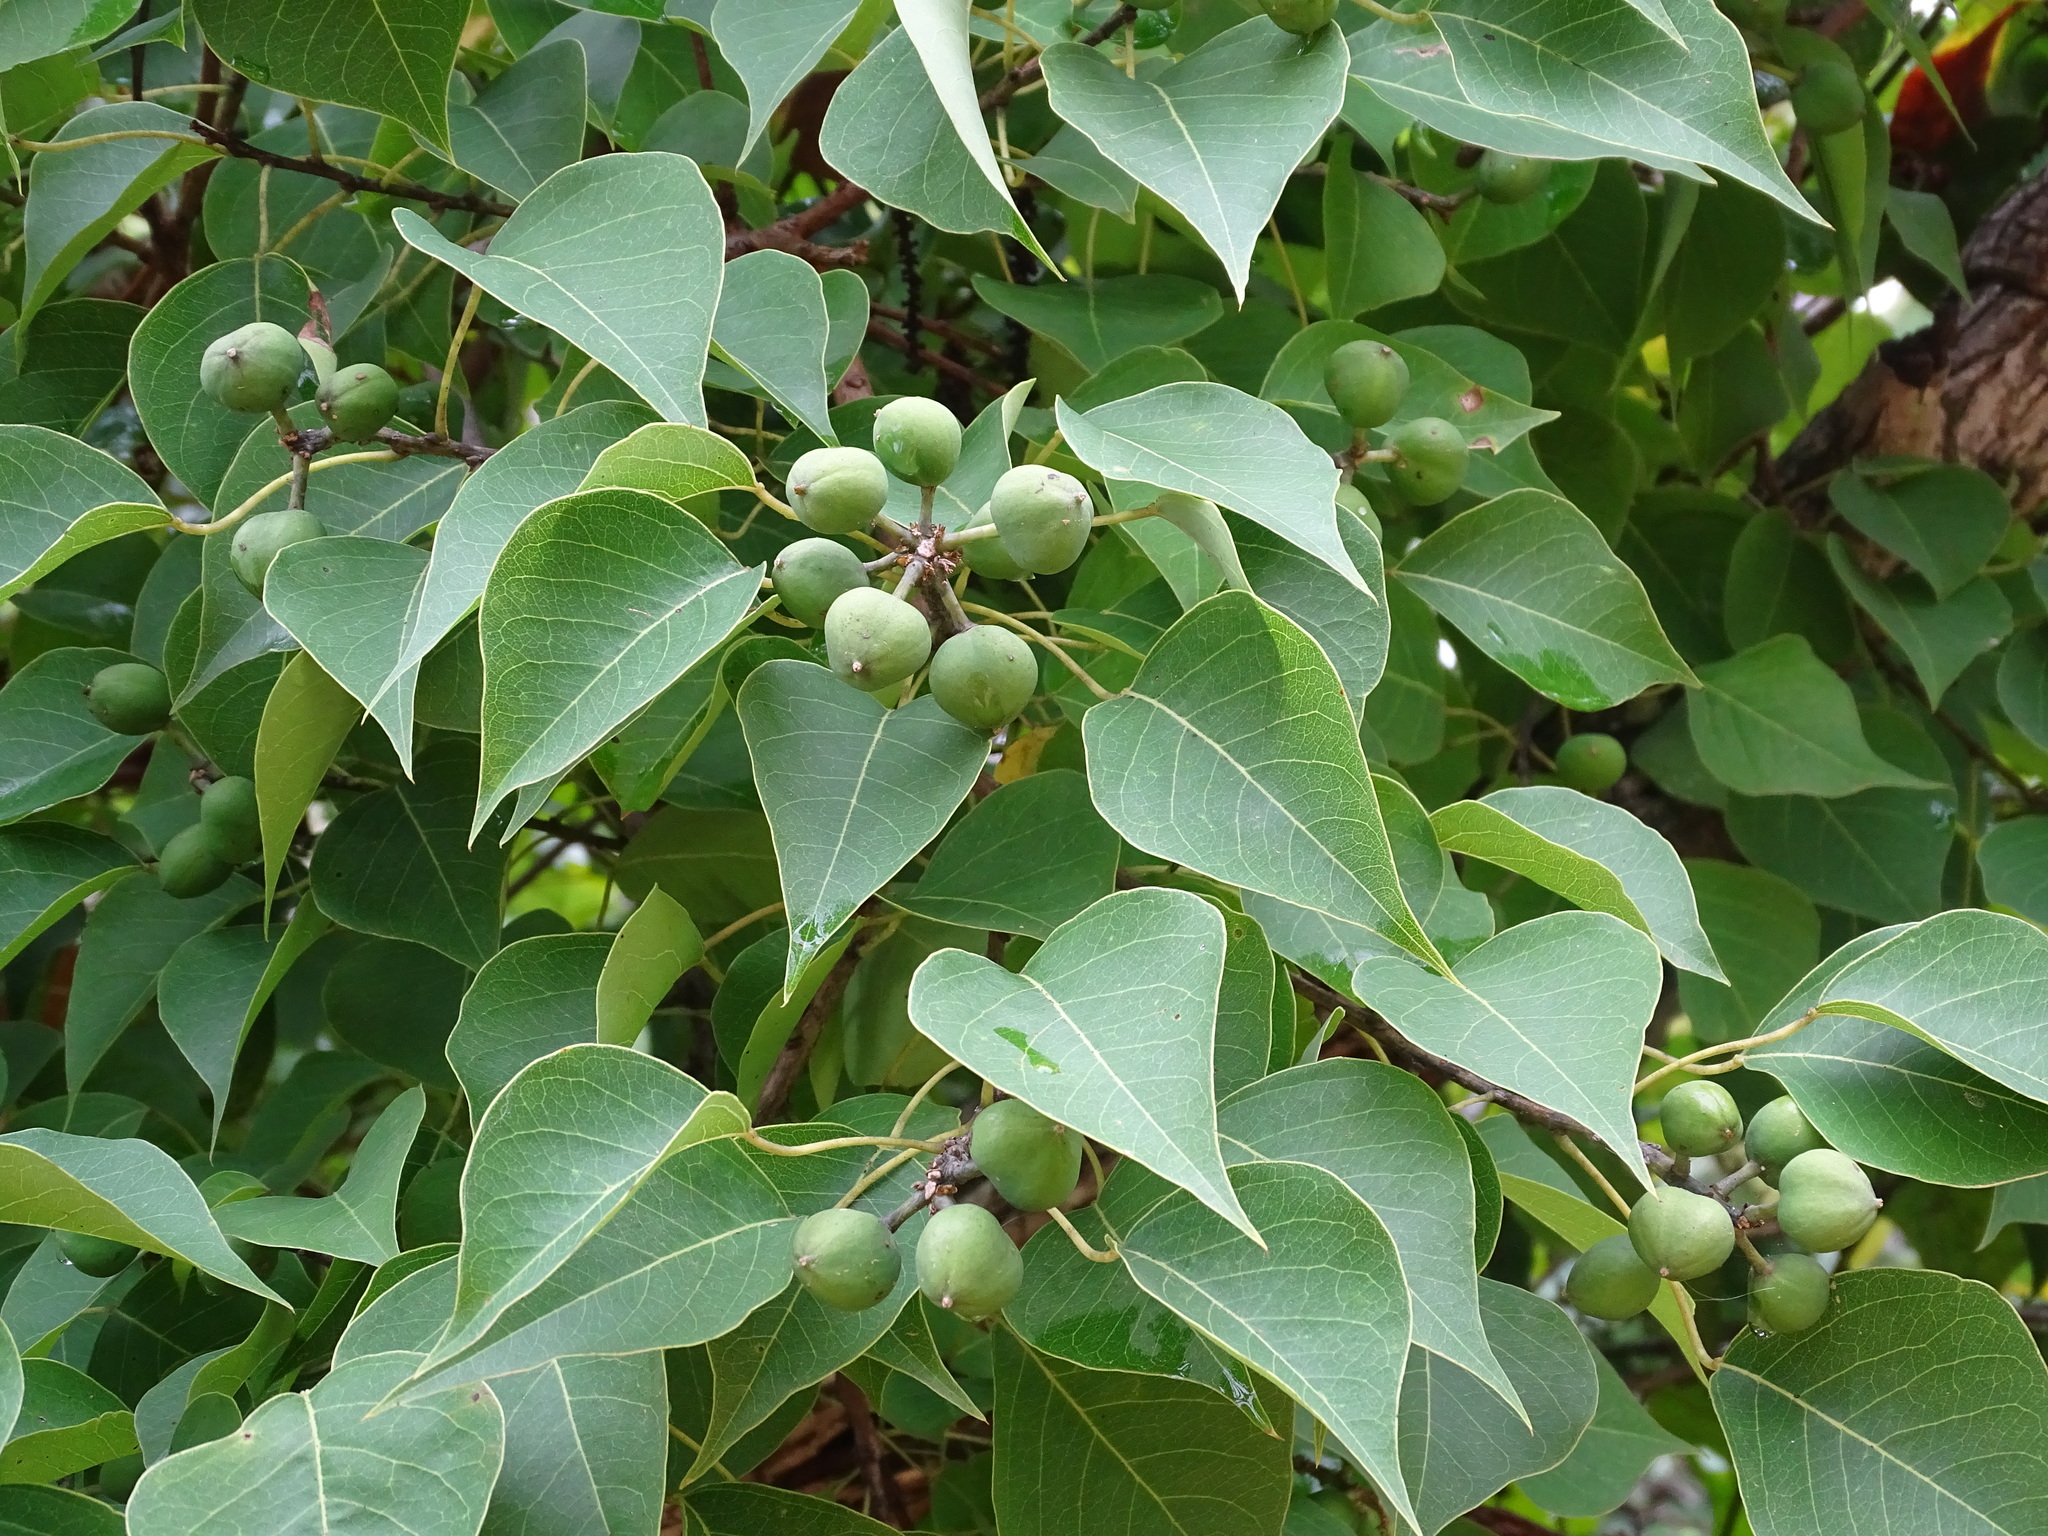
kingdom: Plantae
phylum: Tracheophyta
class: Magnoliopsida
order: Malpighiales
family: Euphorbiaceae
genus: Triadica
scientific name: Triadica sebifera
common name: Chinese tallow
